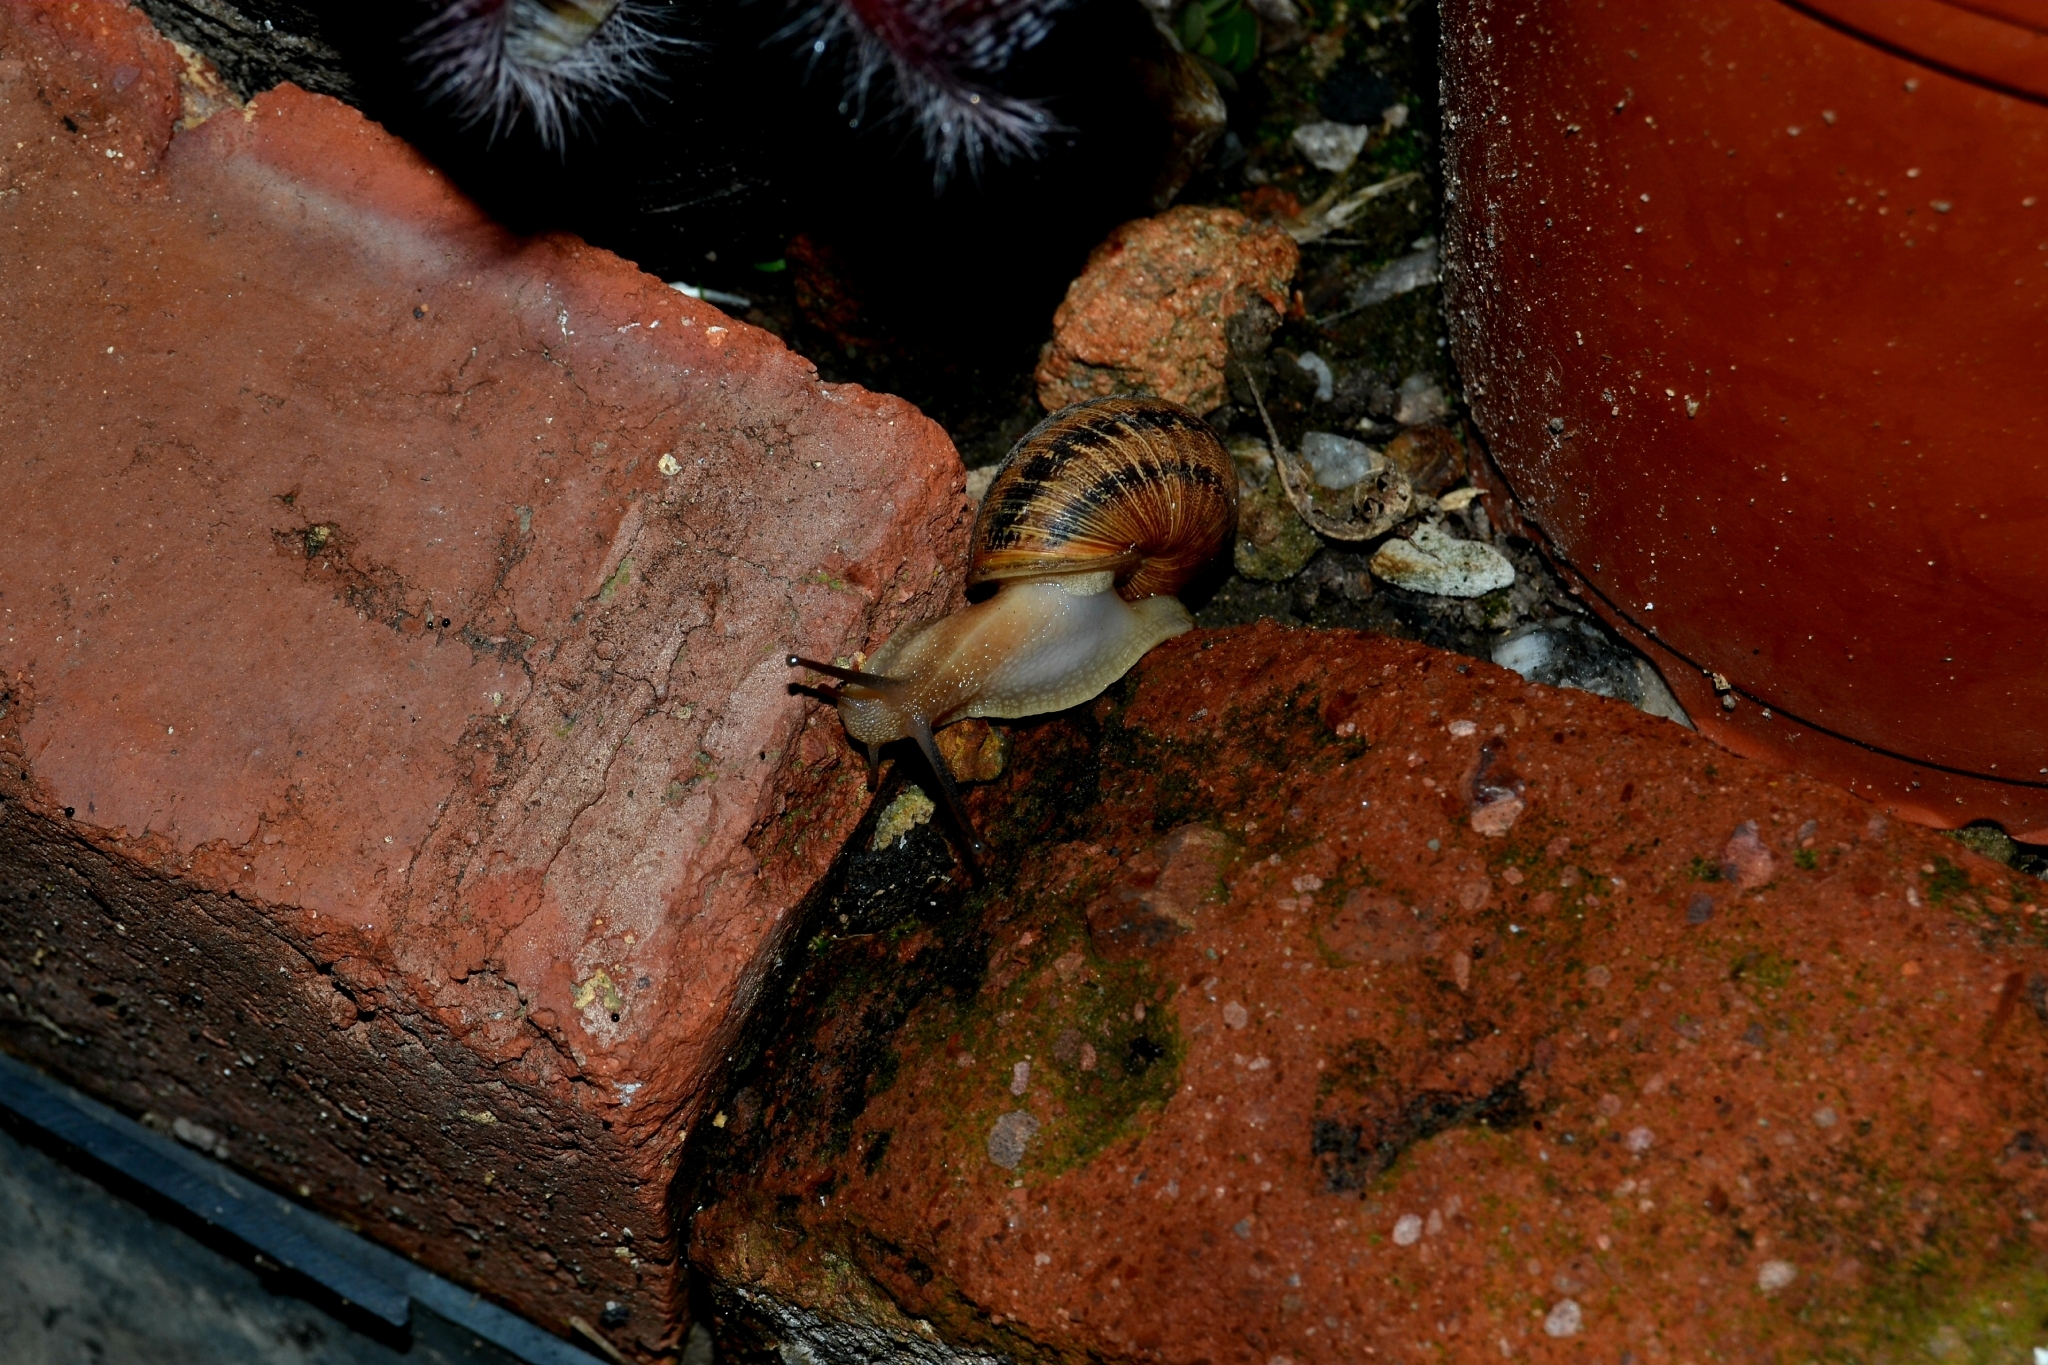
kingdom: Animalia
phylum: Mollusca
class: Gastropoda
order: Stylommatophora
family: Helicidae
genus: Cornu
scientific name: Cornu aspersum
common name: Brown garden snail
